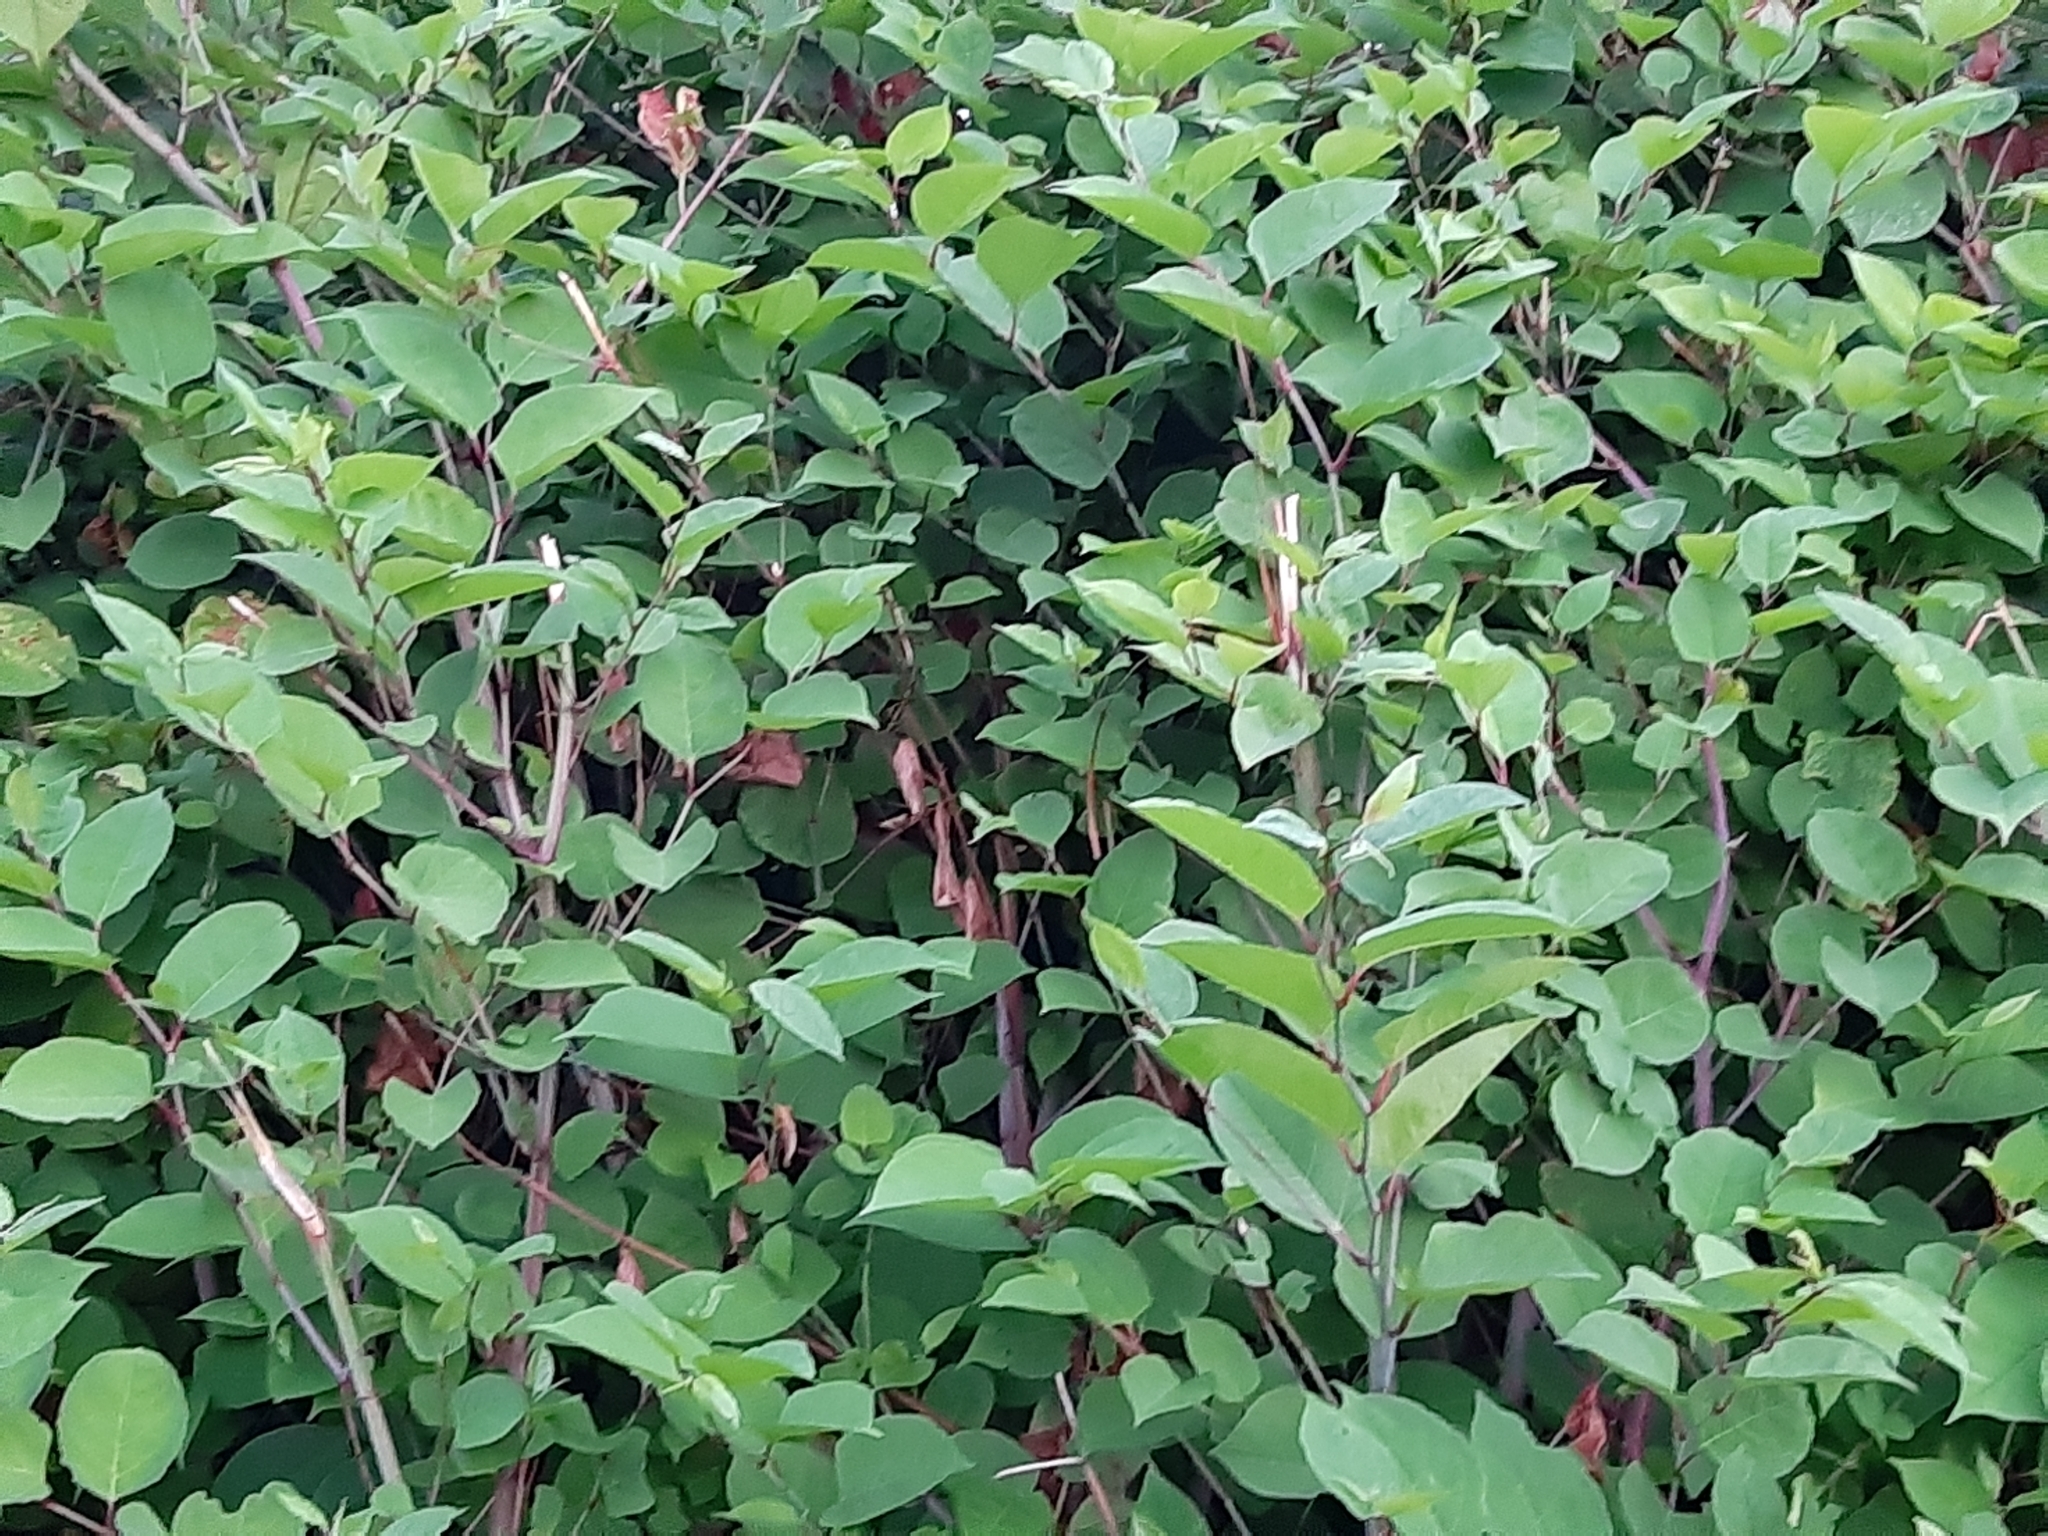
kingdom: Plantae
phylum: Tracheophyta
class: Magnoliopsida
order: Caryophyllales
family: Polygonaceae
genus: Reynoutria
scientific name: Reynoutria japonica
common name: Japanese knotweed
